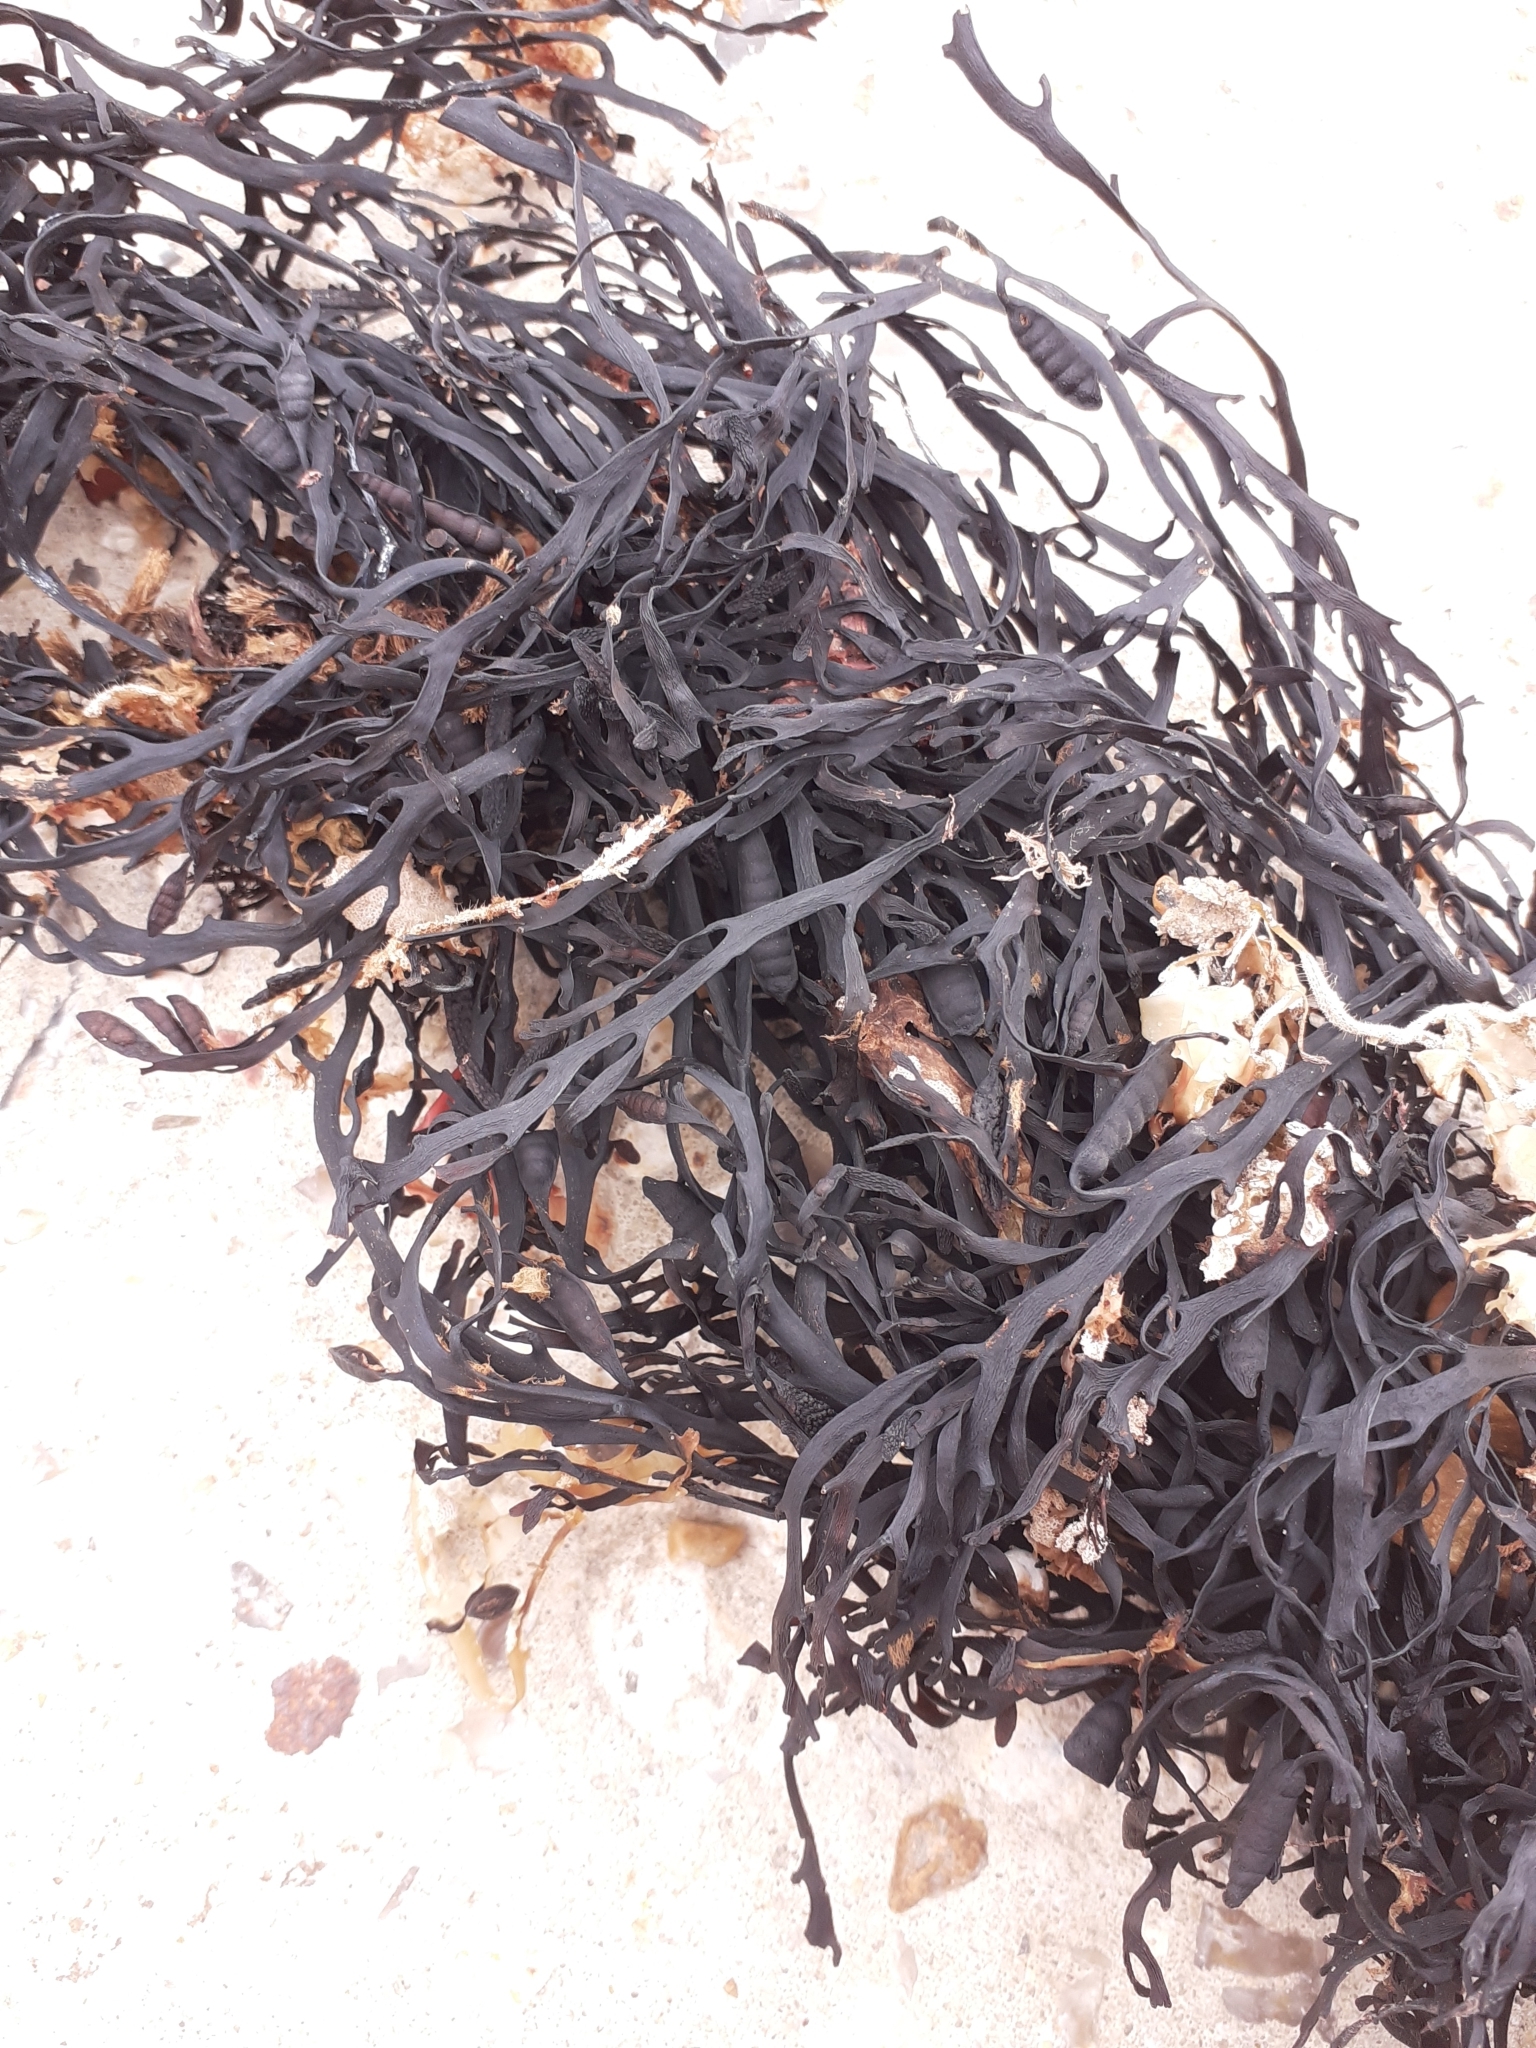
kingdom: Chromista
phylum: Ochrophyta
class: Phaeophyceae
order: Fucales
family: Sargassaceae
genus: Halidrys
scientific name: Halidrys siliquosa
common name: Sea oak
